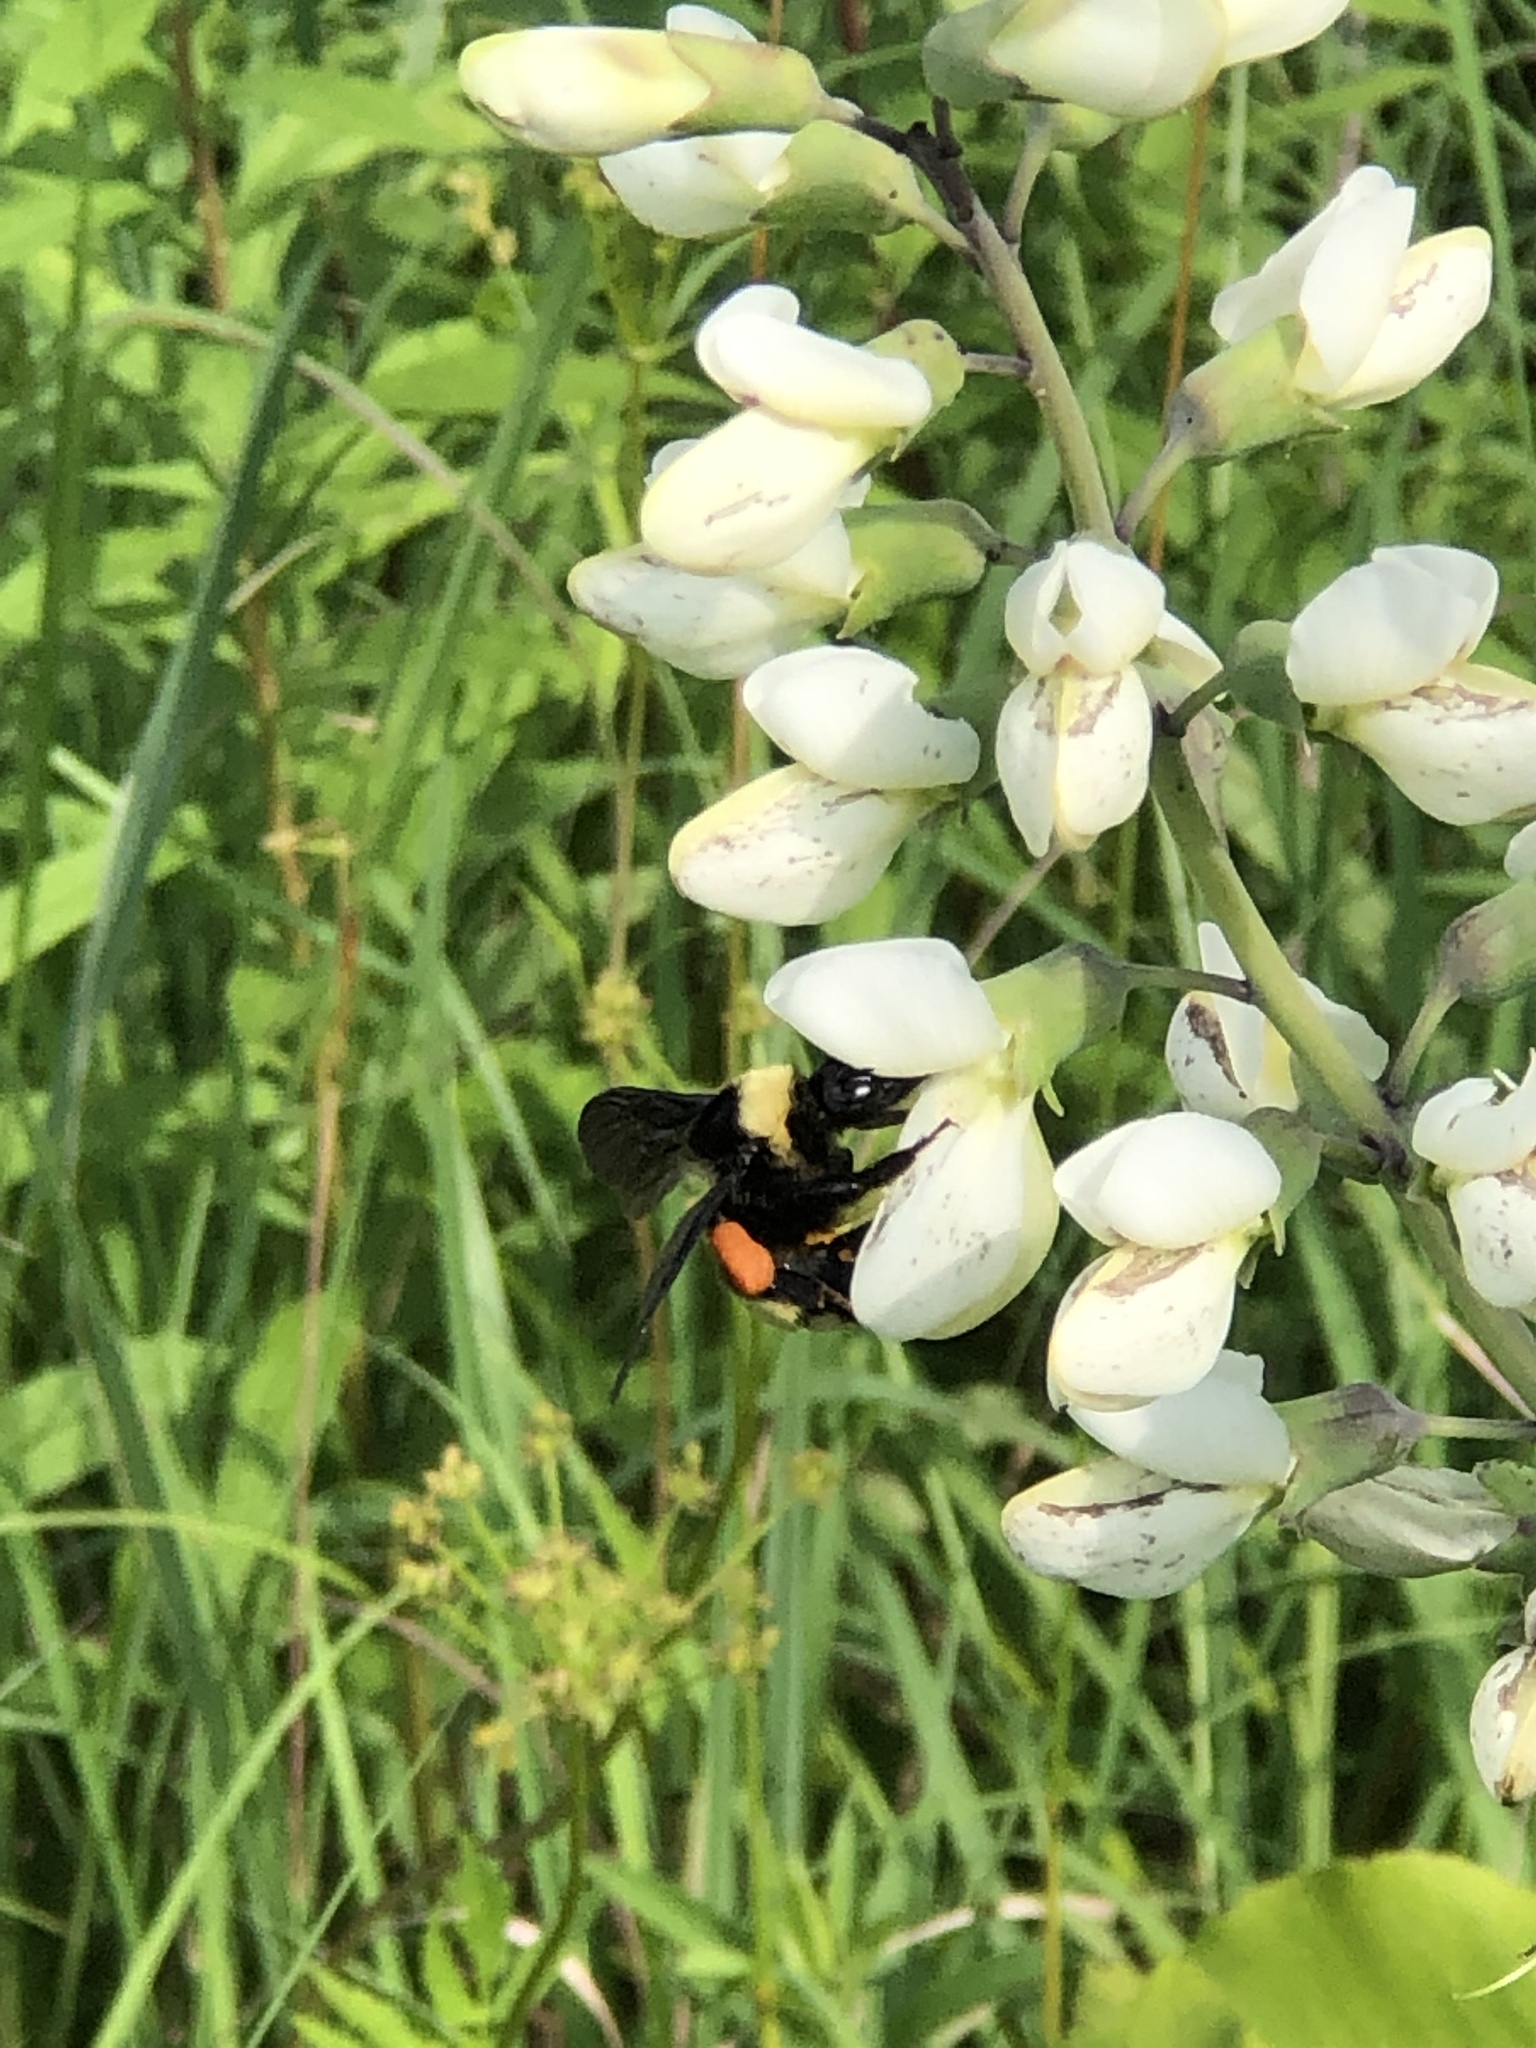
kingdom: Animalia
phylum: Arthropoda
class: Insecta
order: Hymenoptera
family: Apidae
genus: Bombus
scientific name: Bombus
